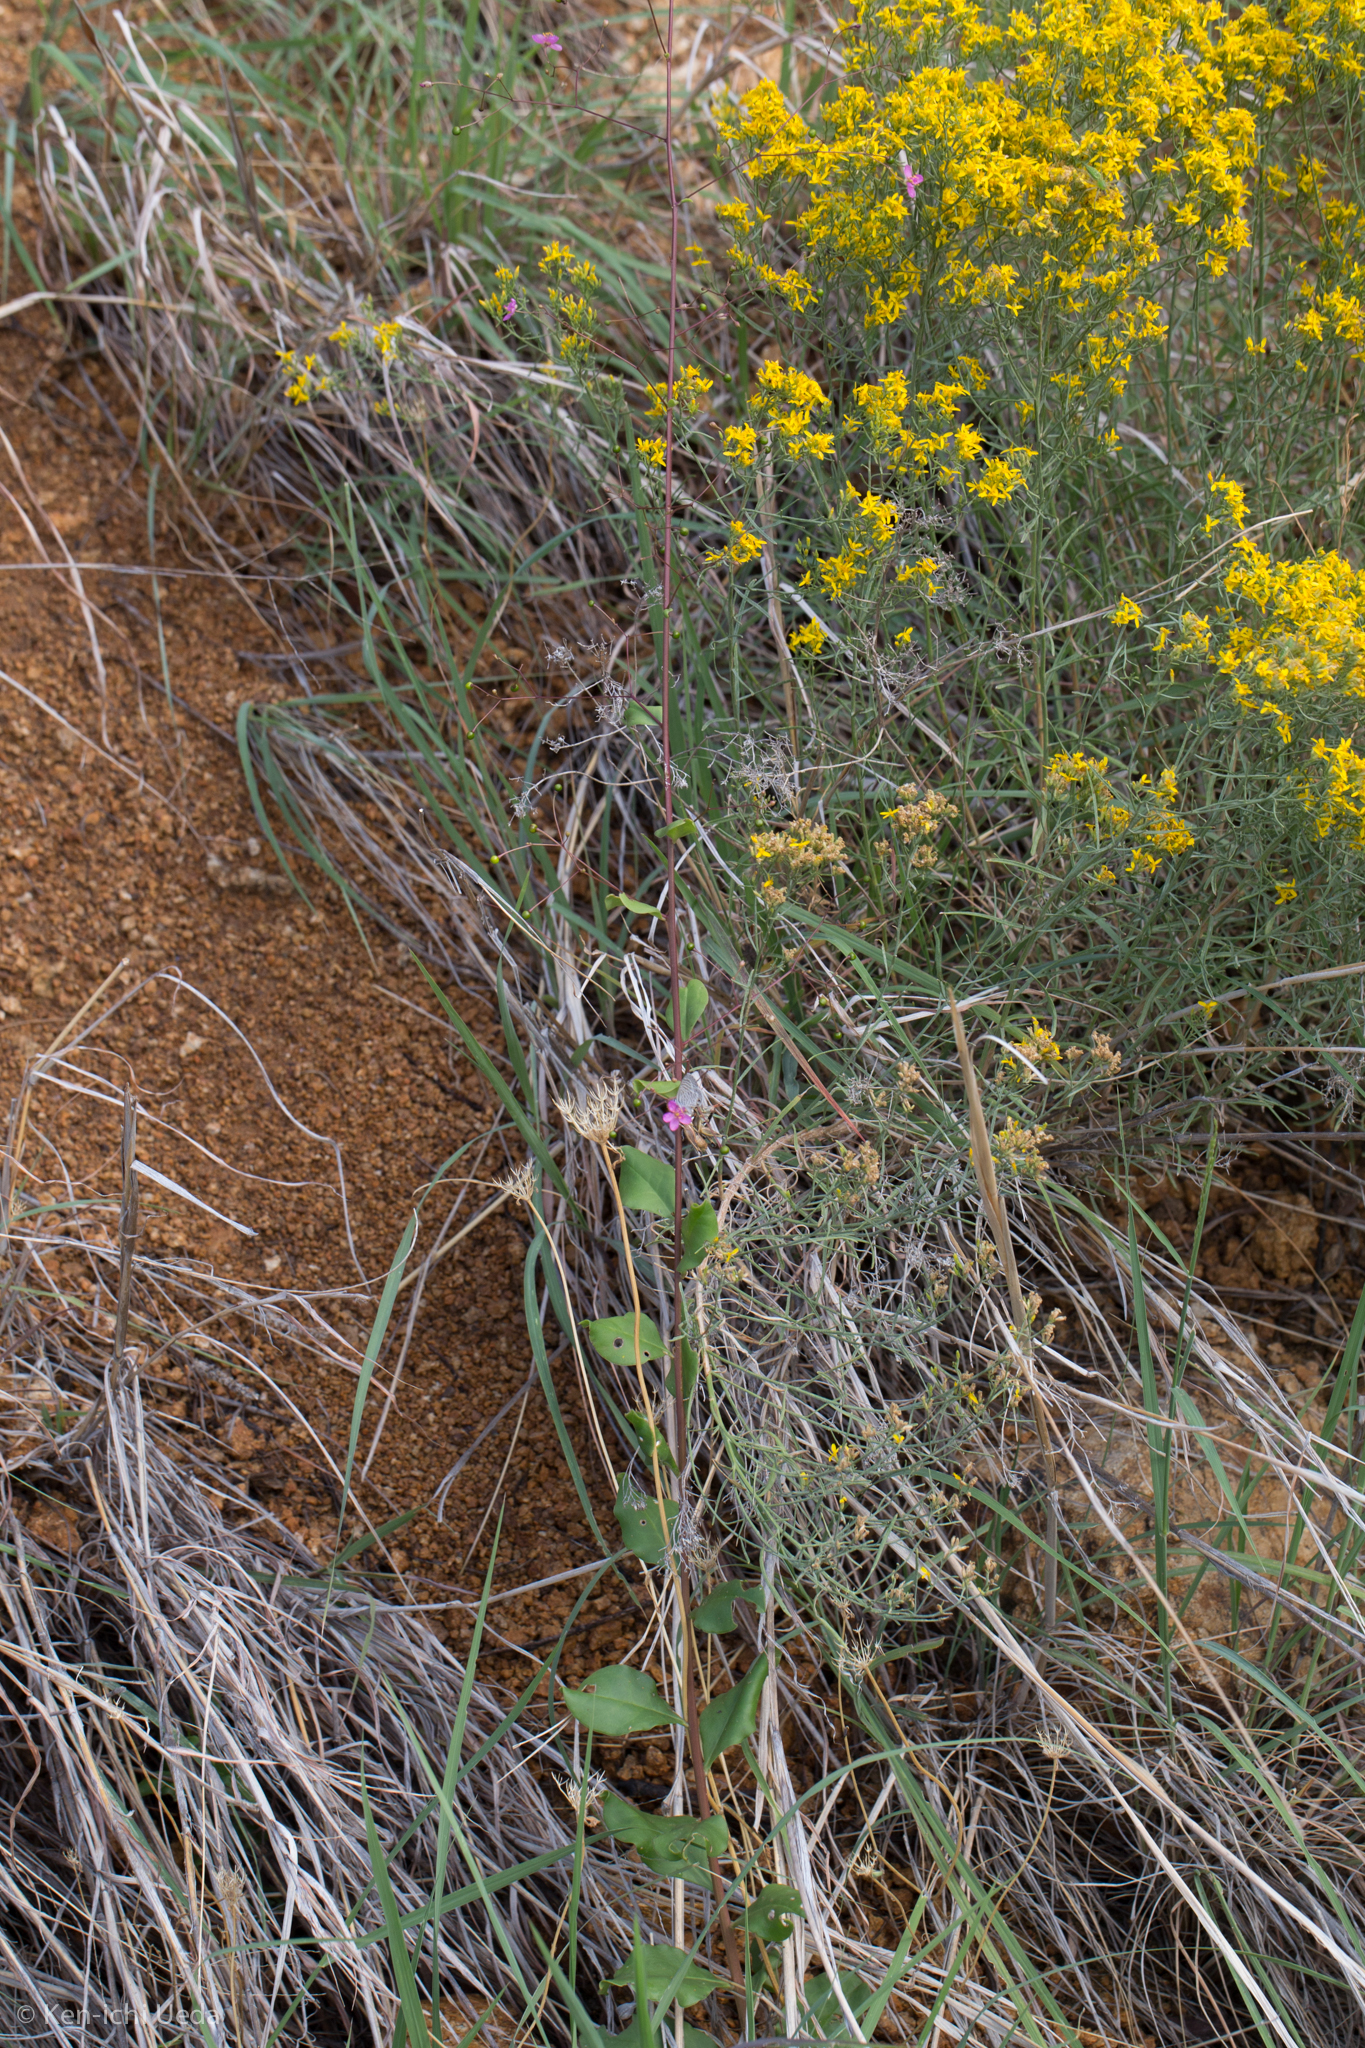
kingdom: Plantae
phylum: Tracheophyta
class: Magnoliopsida
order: Caryophyllales
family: Talinaceae
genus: Talinum
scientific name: Talinum paniculatum
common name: Jewels of opar
